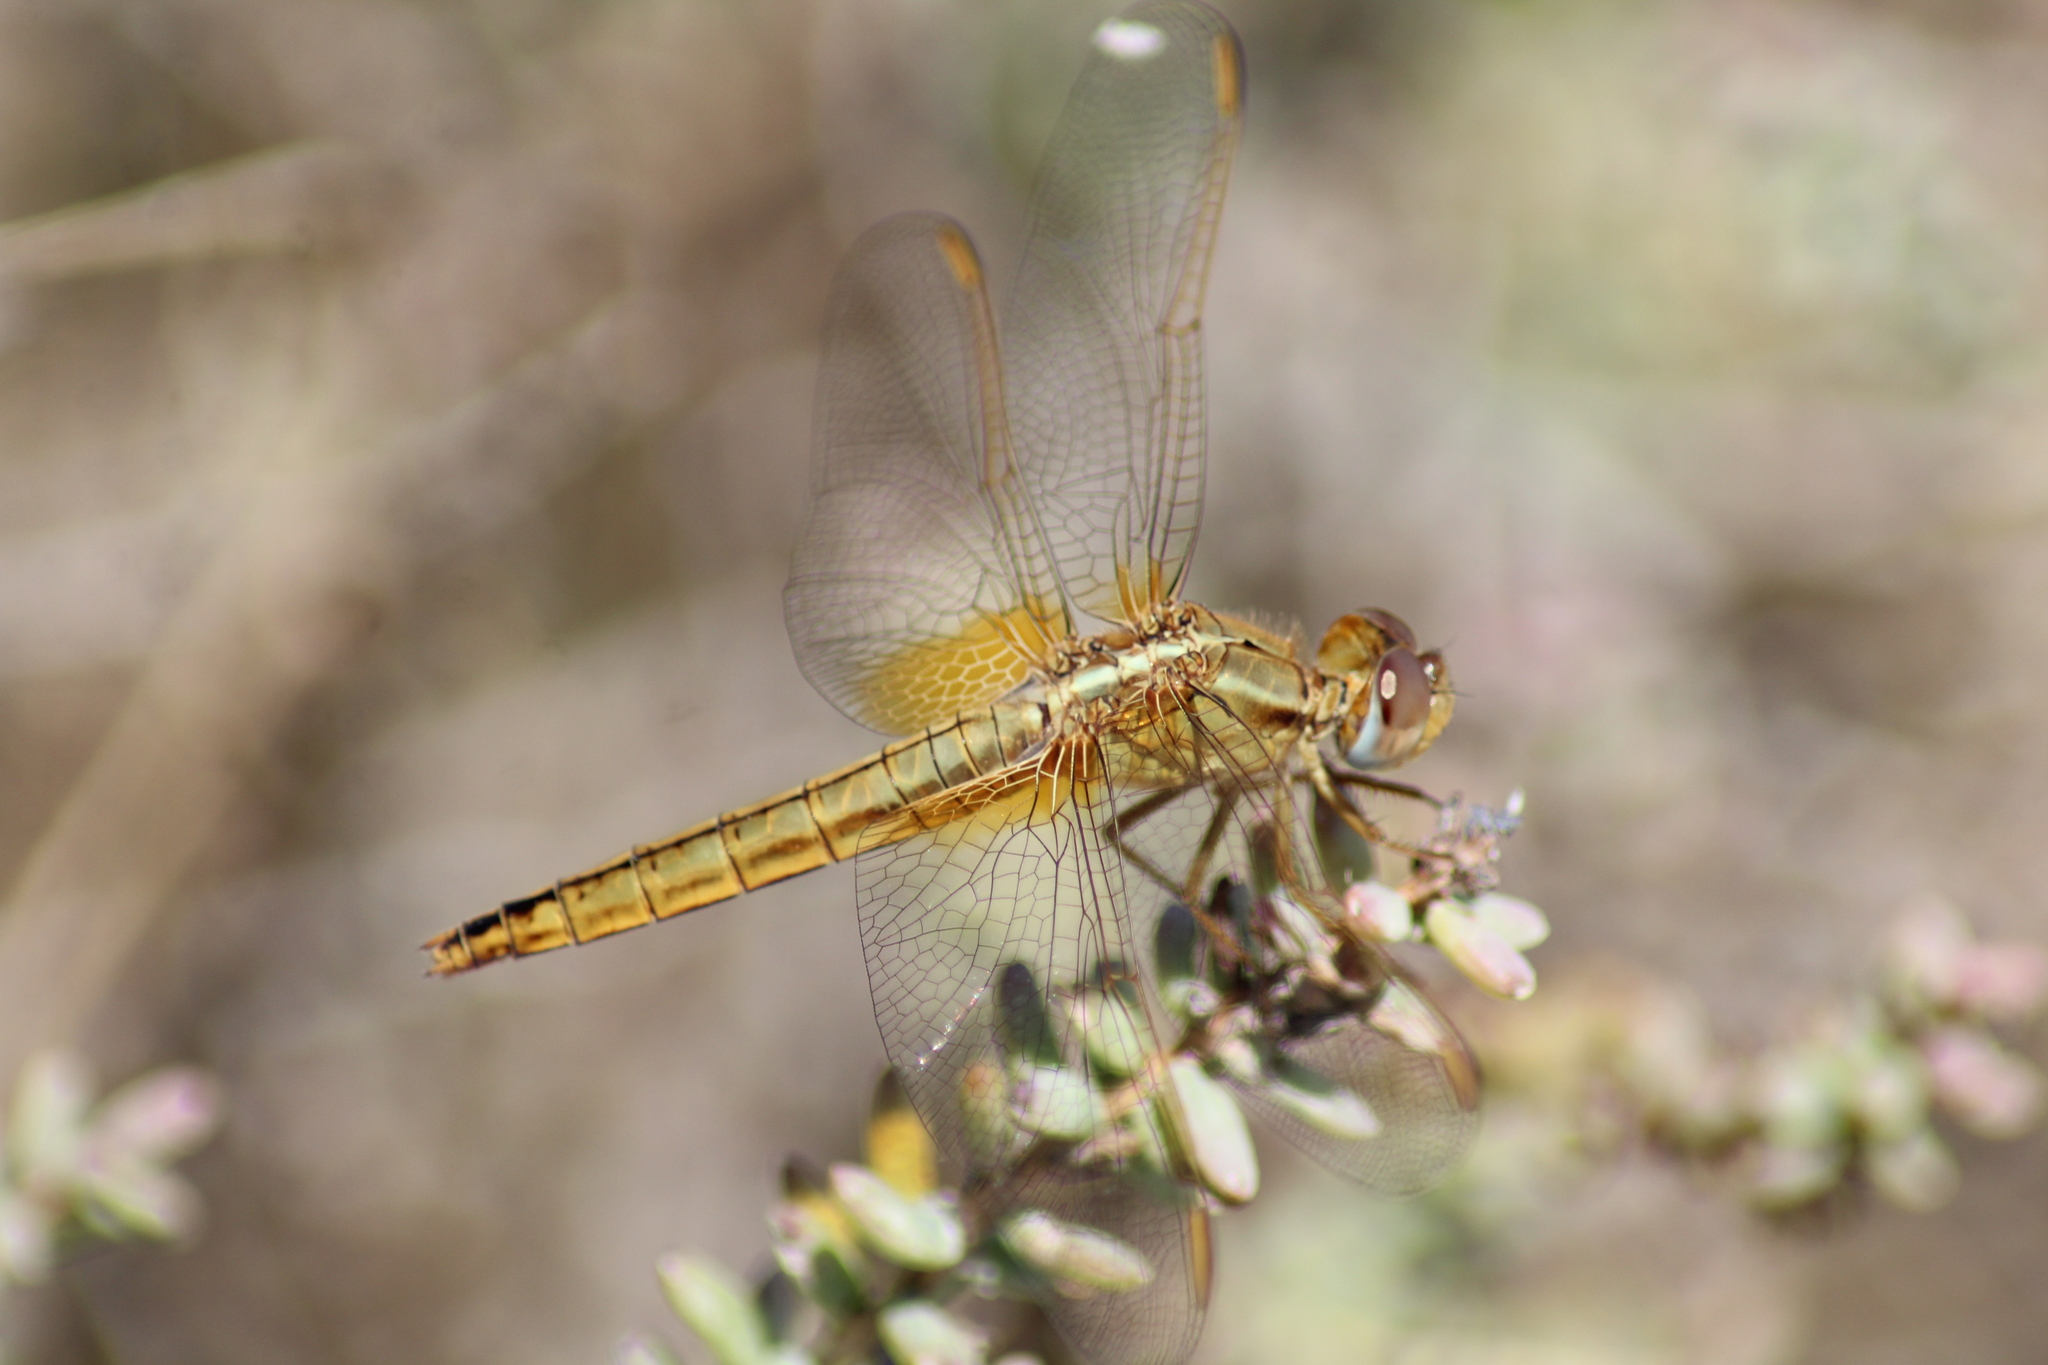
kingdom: Animalia
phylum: Arthropoda
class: Insecta
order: Odonata
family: Libellulidae
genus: Crocothemis
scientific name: Crocothemis erythraea
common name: Scarlet dragonfly
